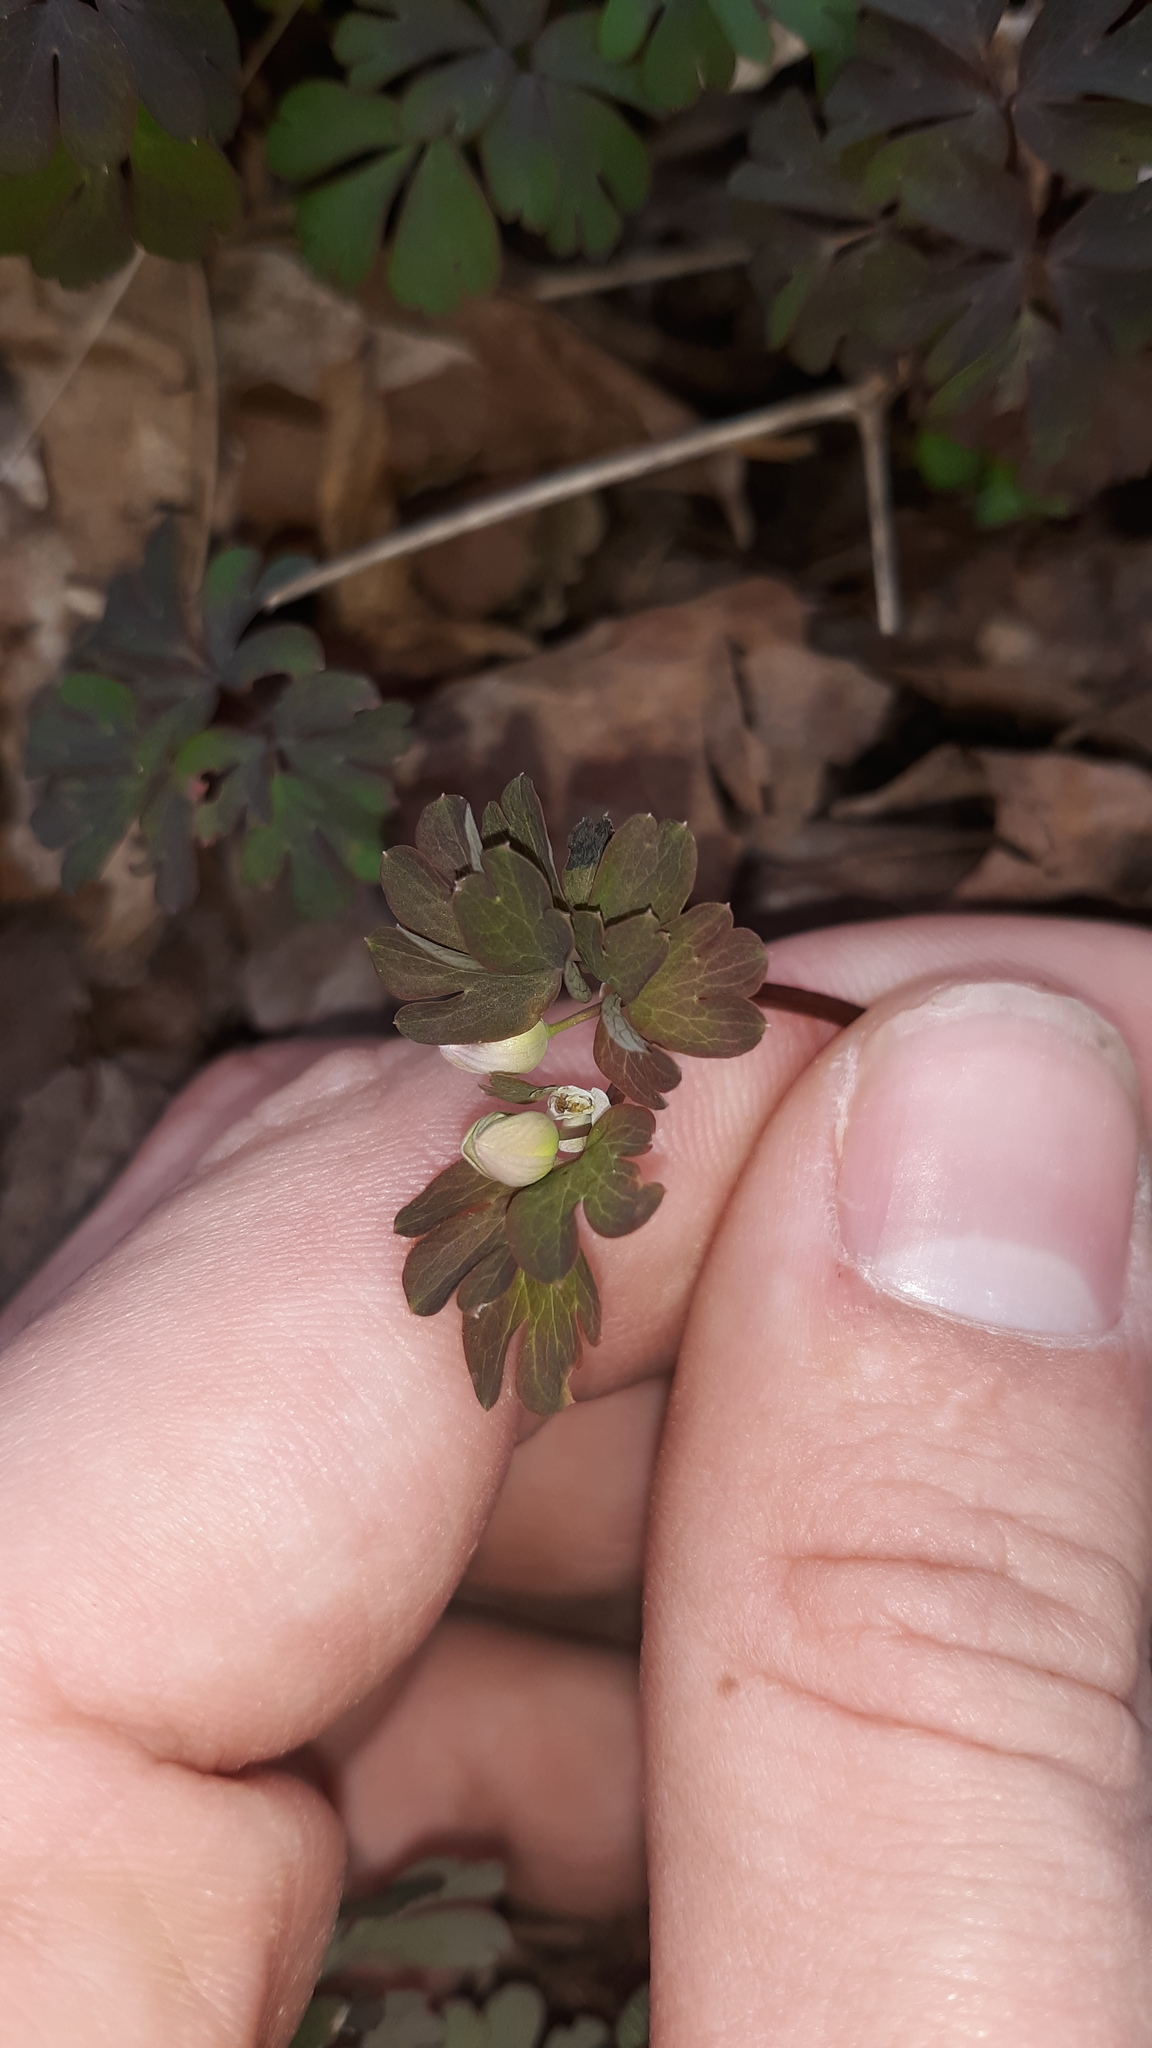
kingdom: Plantae
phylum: Tracheophyta
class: Magnoliopsida
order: Ranunculales
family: Ranunculaceae
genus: Enemion
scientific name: Enemion biternatum
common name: Eastern false rue-anemone
